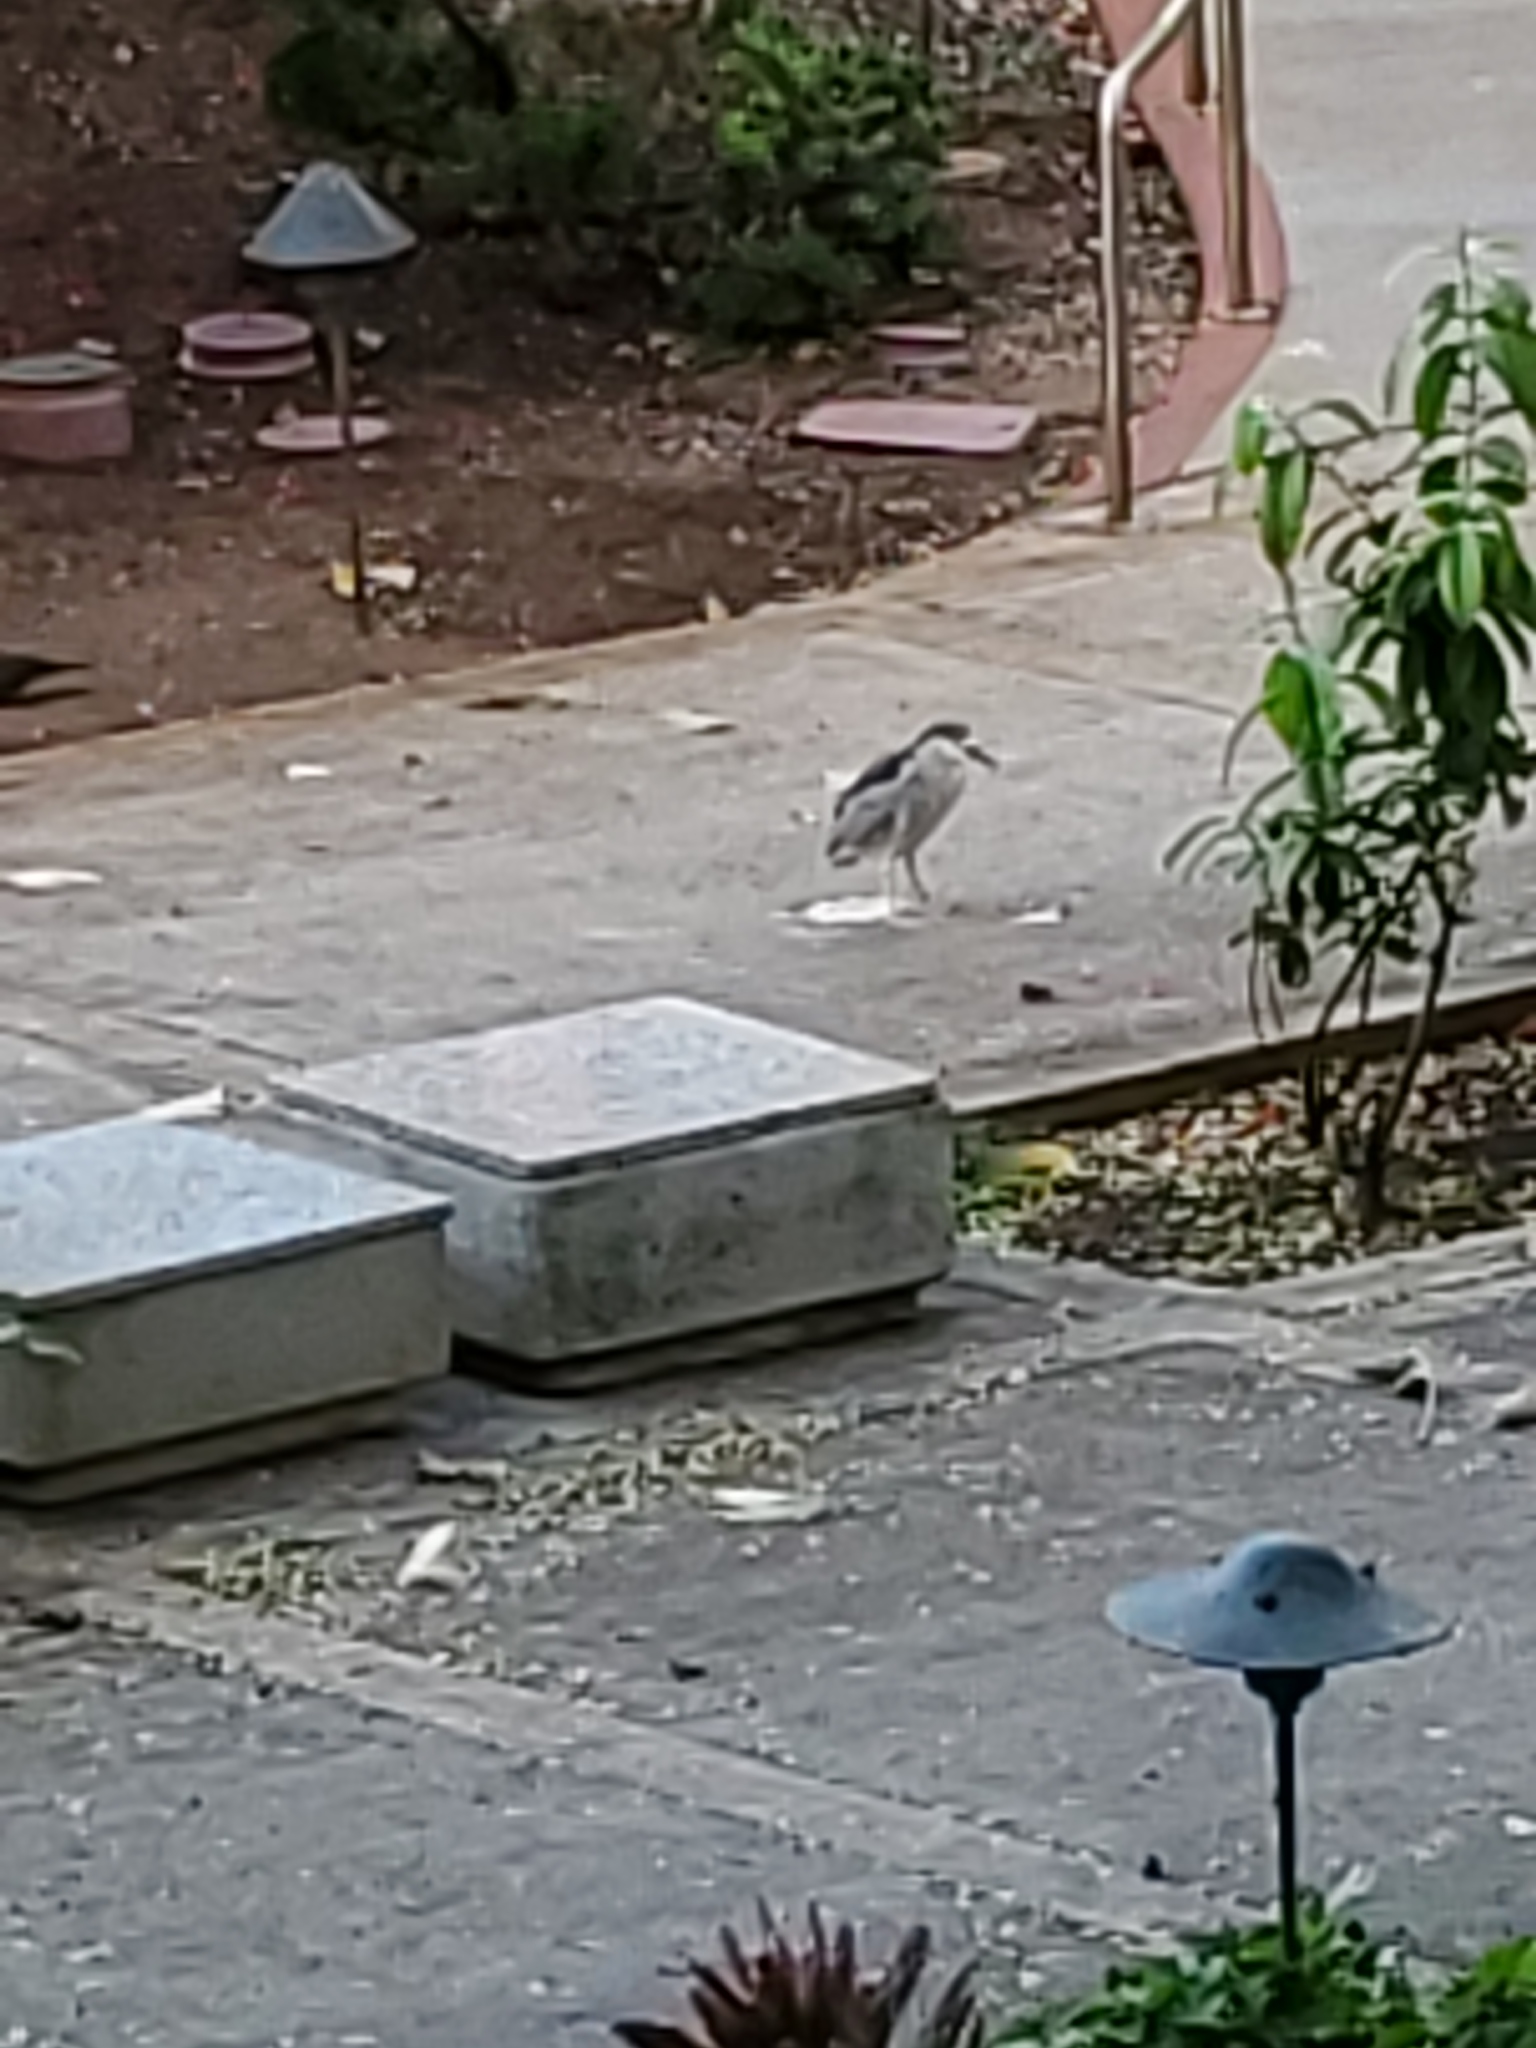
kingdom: Animalia
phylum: Chordata
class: Aves
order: Pelecaniformes
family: Ardeidae
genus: Nycticorax
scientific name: Nycticorax nycticorax
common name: Black-crowned night heron
